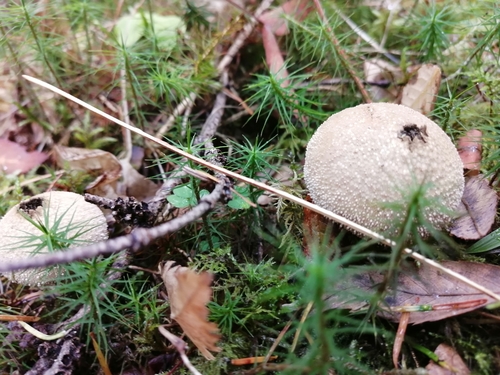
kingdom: Fungi
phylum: Basidiomycota
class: Agaricomycetes
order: Agaricales
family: Lycoperdaceae
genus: Lycoperdon
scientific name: Lycoperdon perlatum
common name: Common puffball
